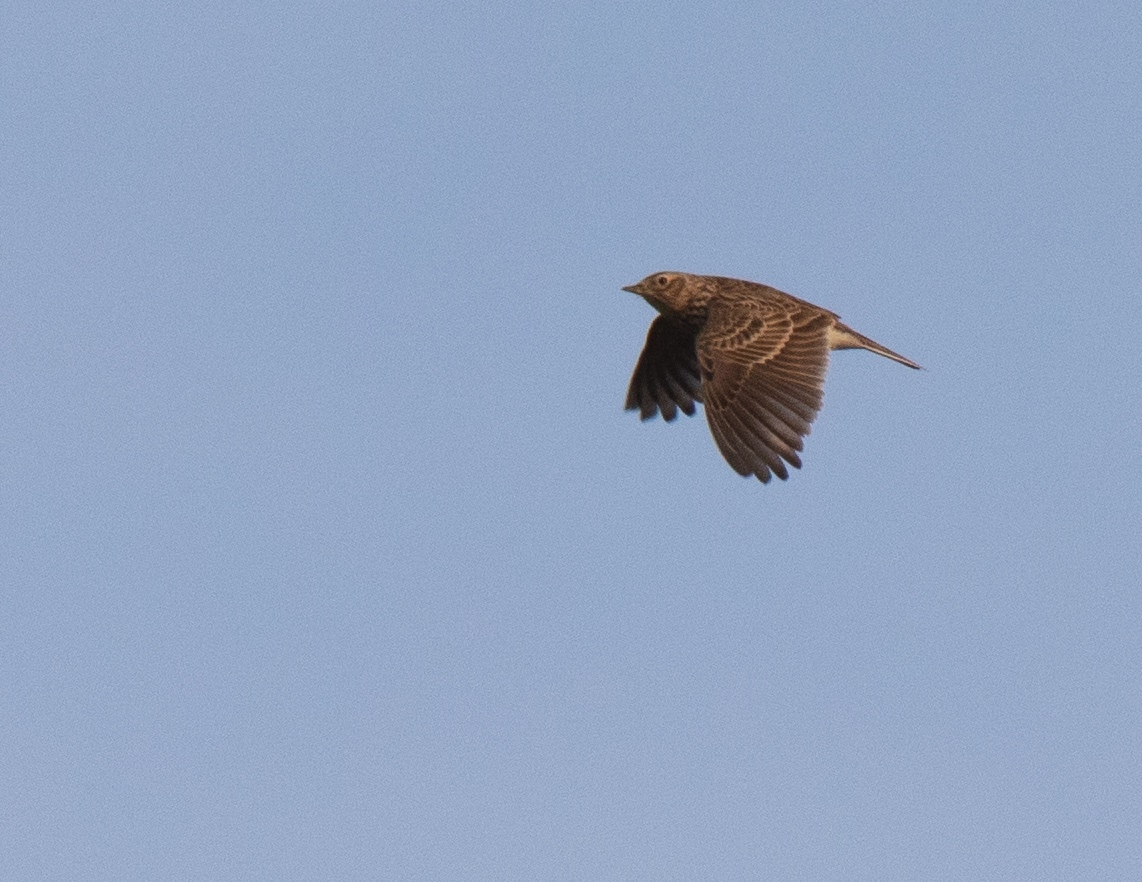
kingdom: Animalia
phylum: Chordata
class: Aves
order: Passeriformes
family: Alaudidae
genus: Alauda
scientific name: Alauda arvensis
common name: Eurasian skylark
